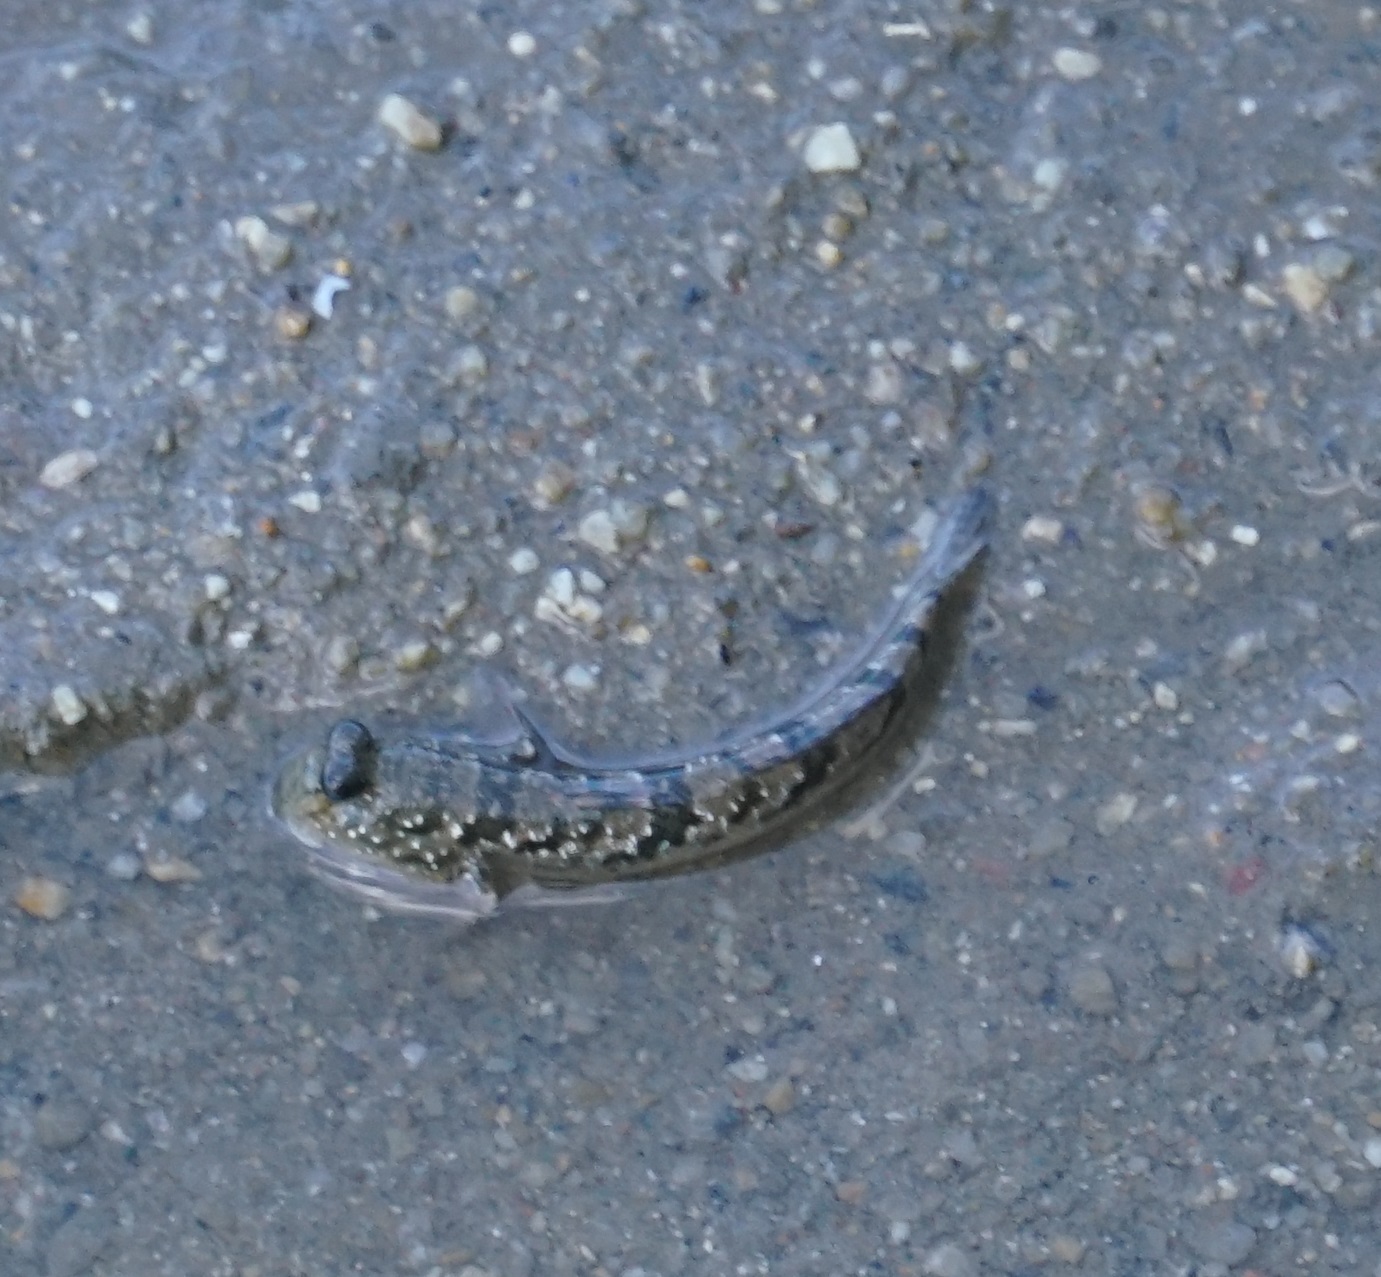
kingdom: Animalia
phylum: Chordata
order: Perciformes
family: Gobiidae
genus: Periophthalmus
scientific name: Periophthalmus argentilineatus
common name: Barred mudskipper
